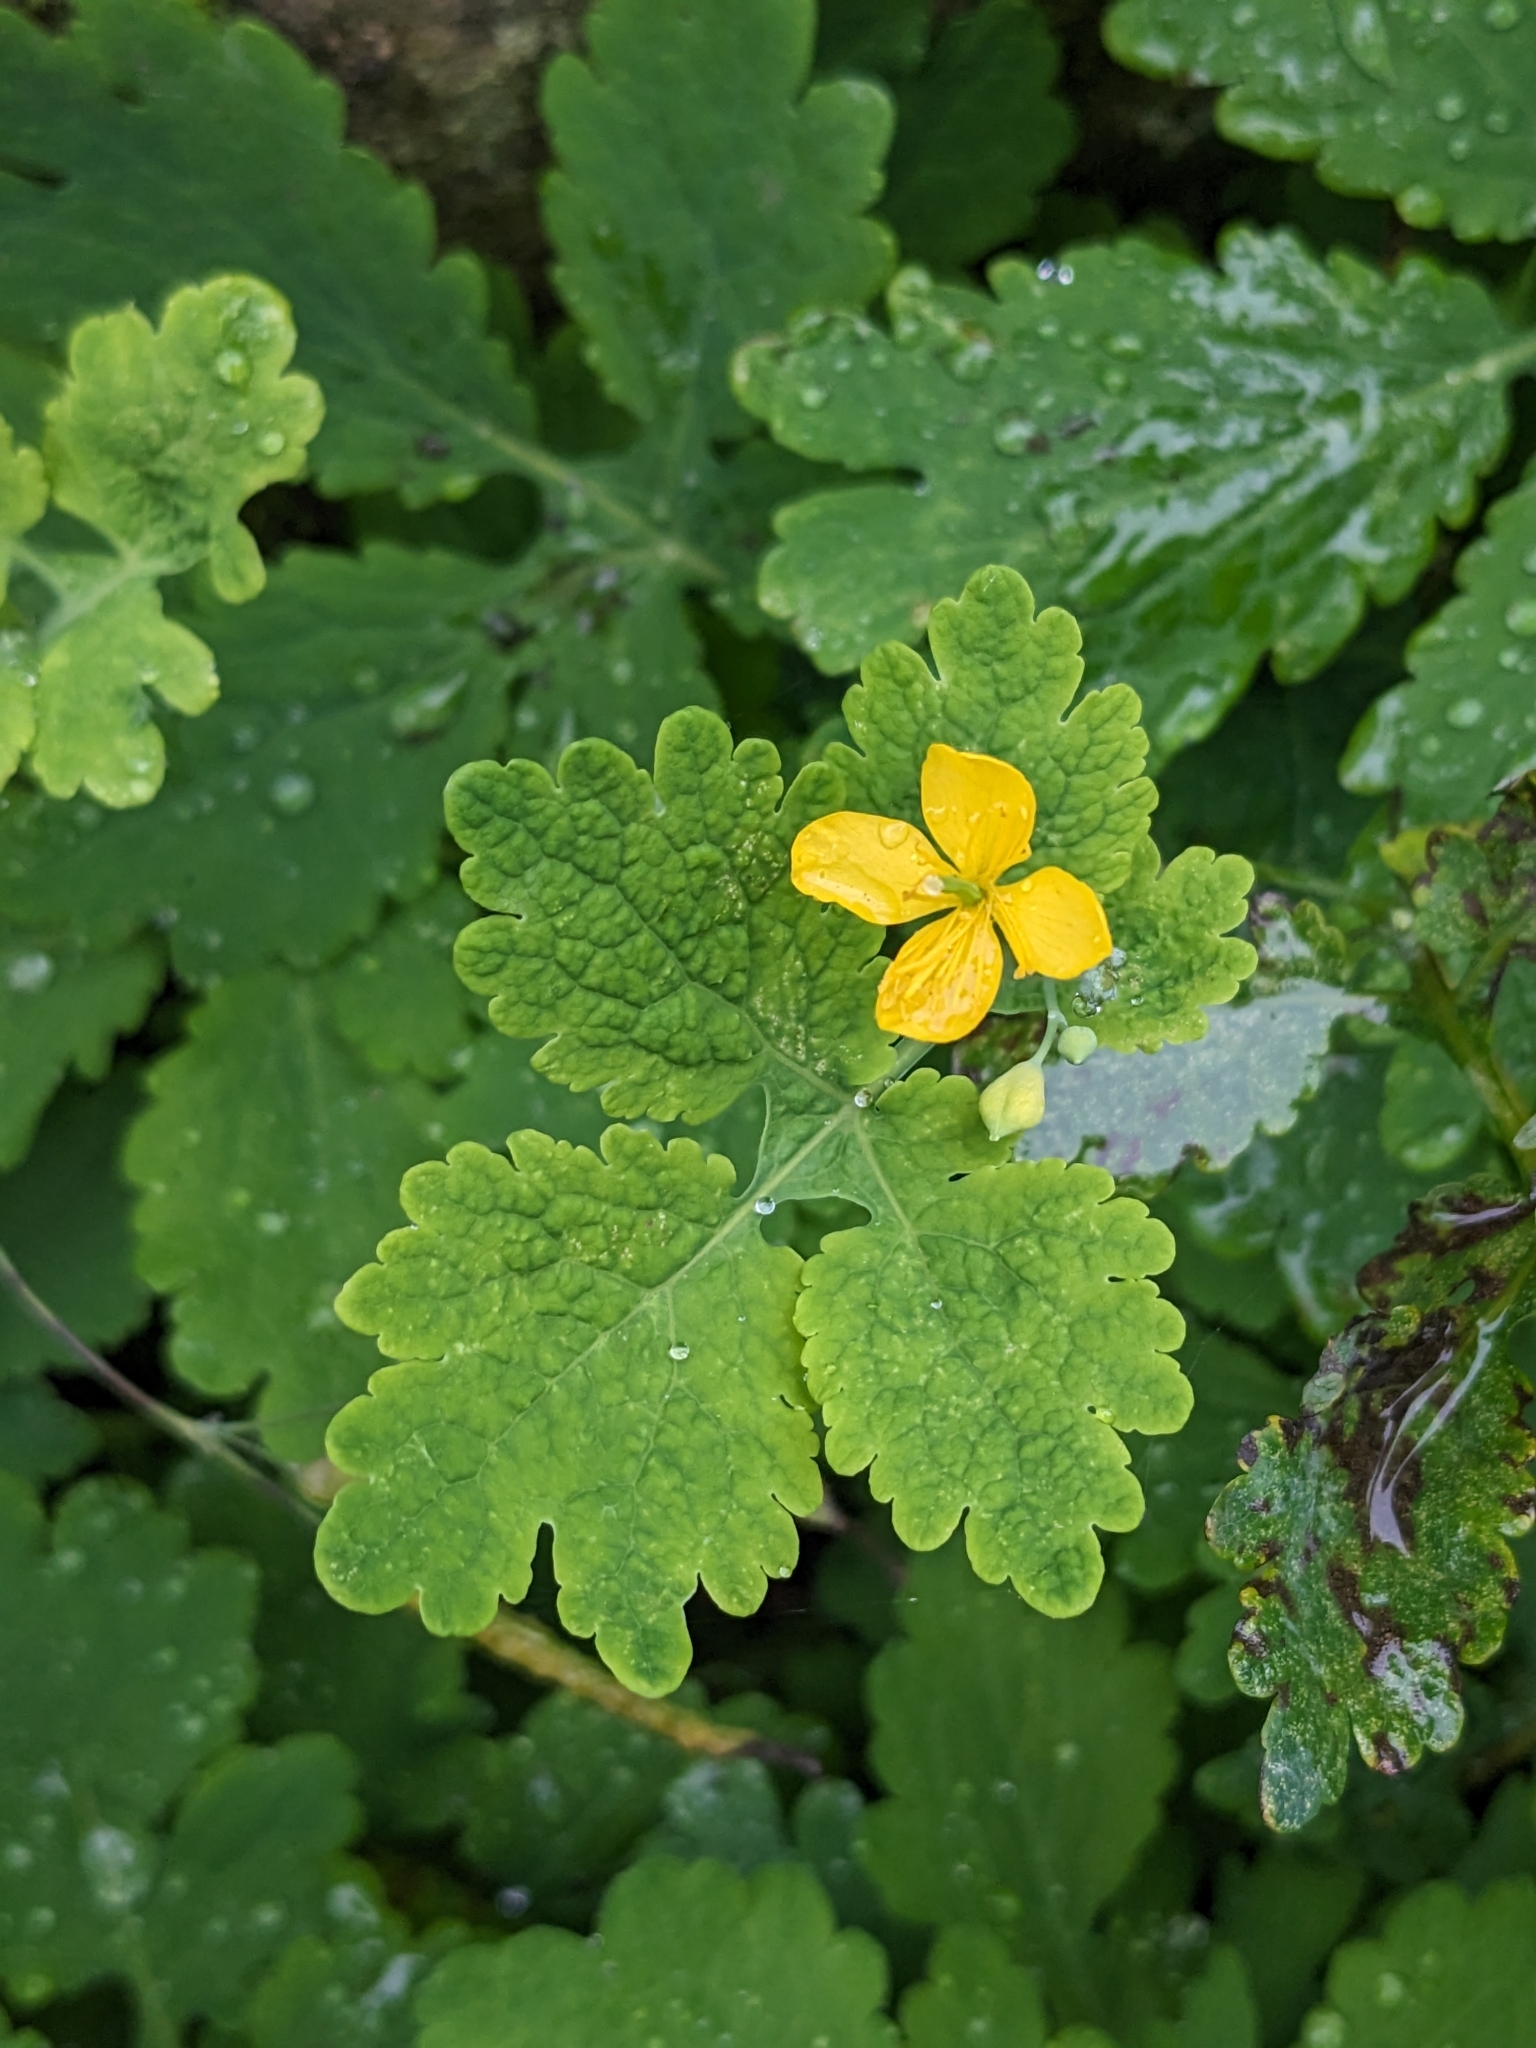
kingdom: Plantae
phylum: Tracheophyta
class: Magnoliopsida
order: Ranunculales
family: Papaveraceae
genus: Chelidonium
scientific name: Chelidonium majus
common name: Greater celandine
